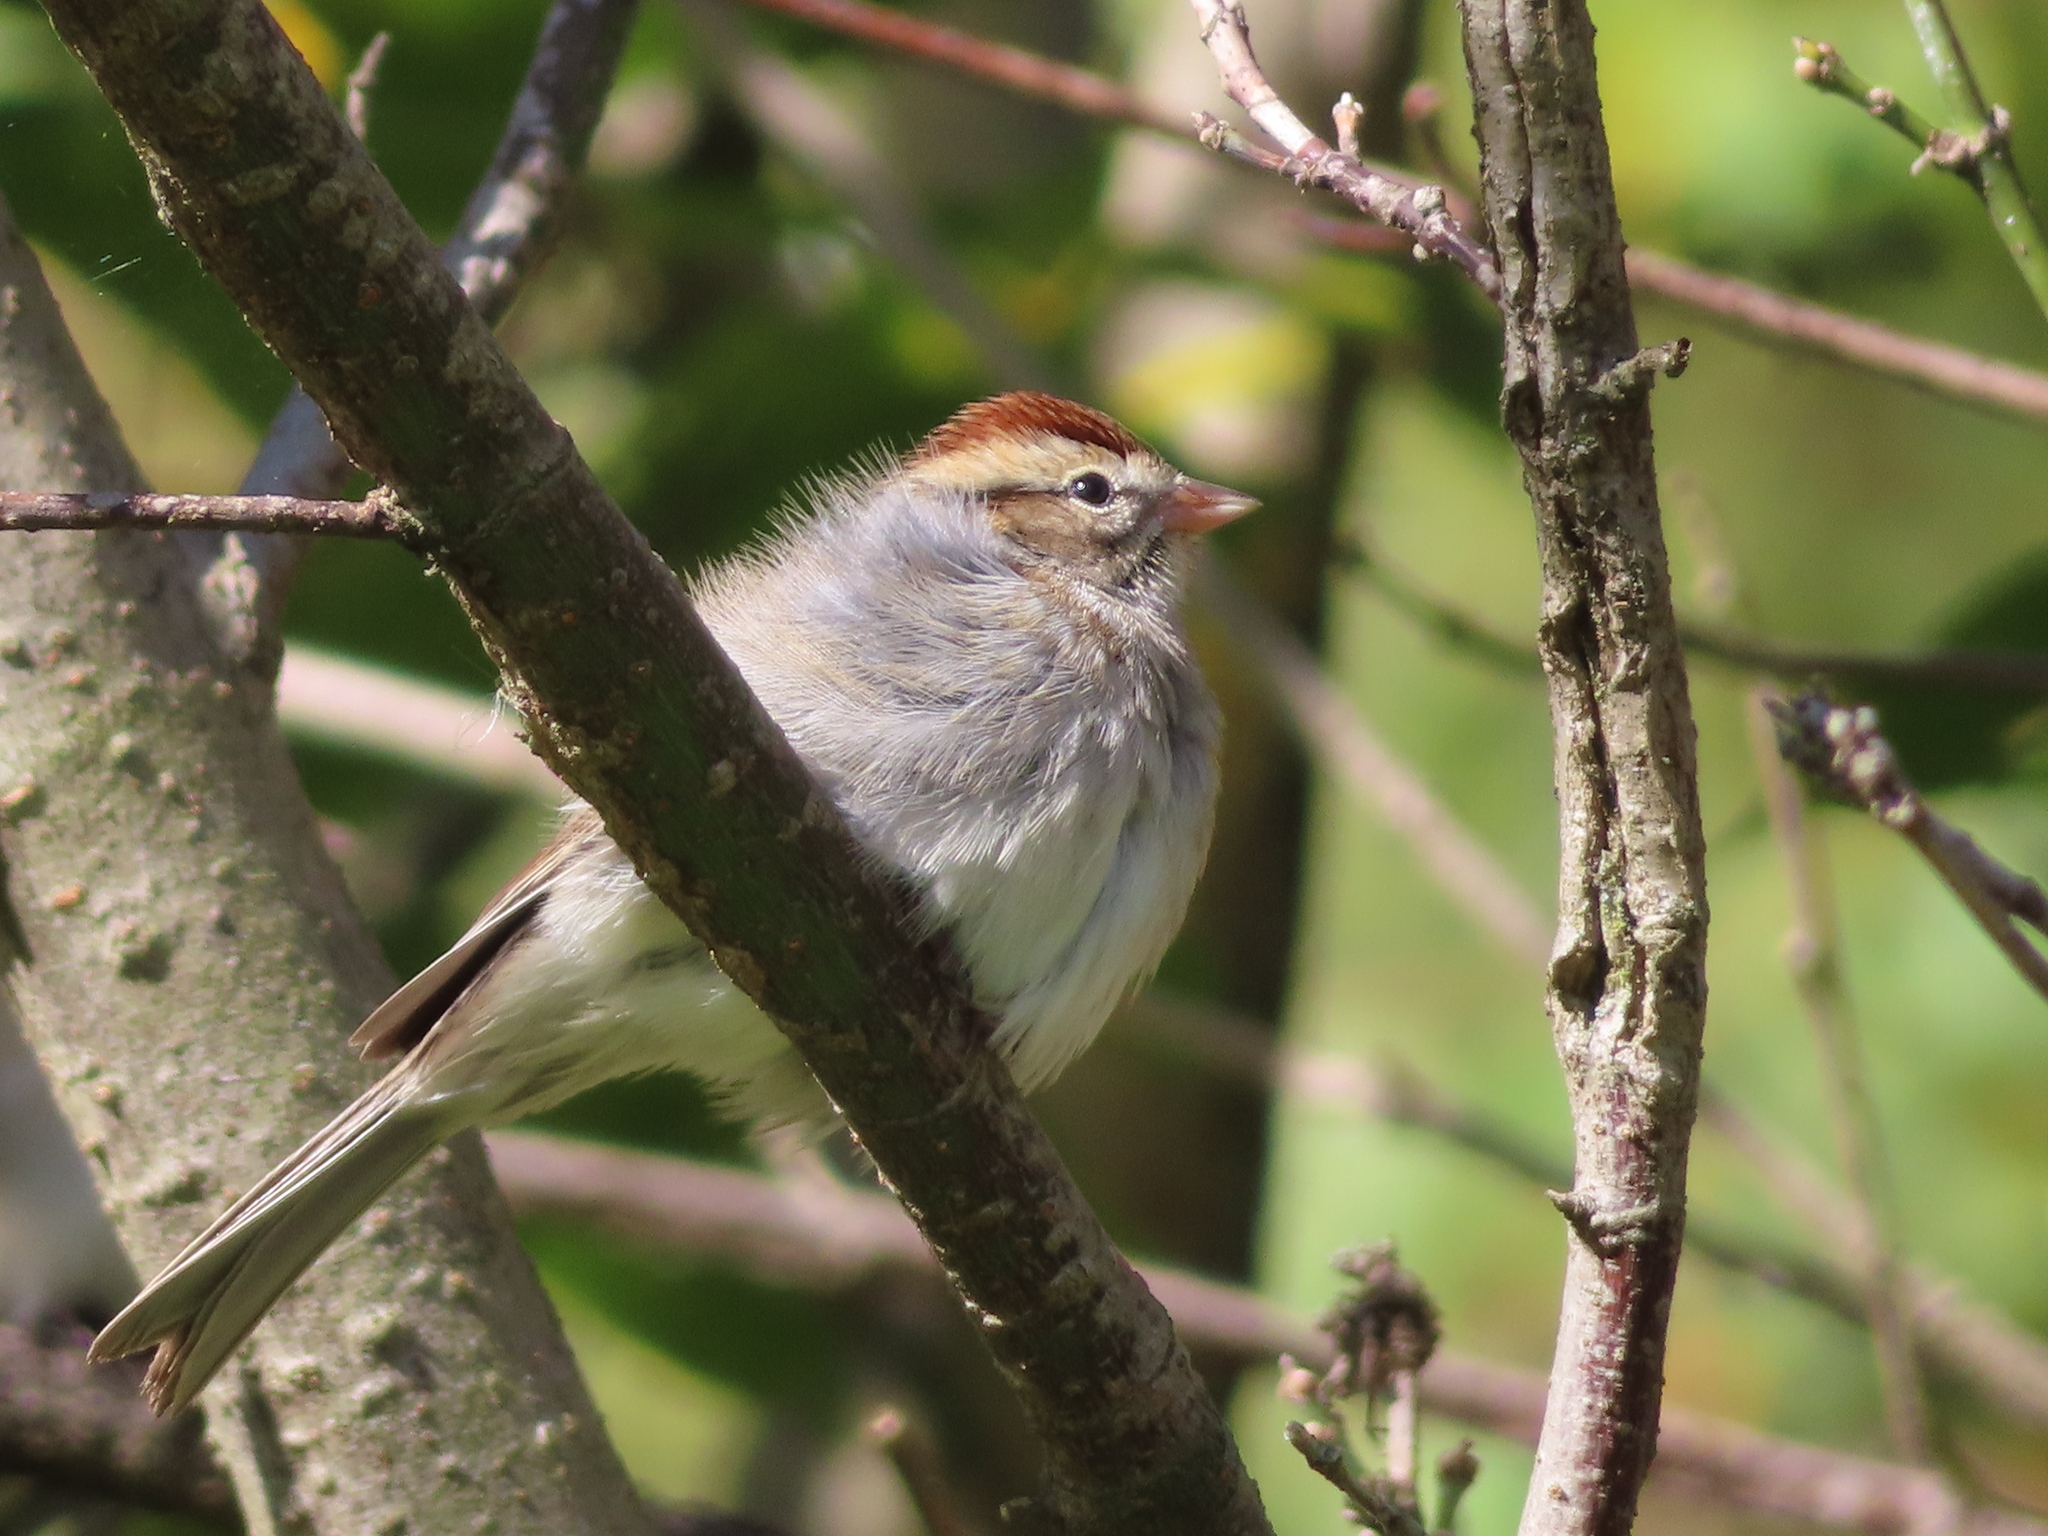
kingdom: Animalia
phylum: Chordata
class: Aves
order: Passeriformes
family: Passerellidae
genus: Spizella
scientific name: Spizella passerina
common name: Chipping sparrow
